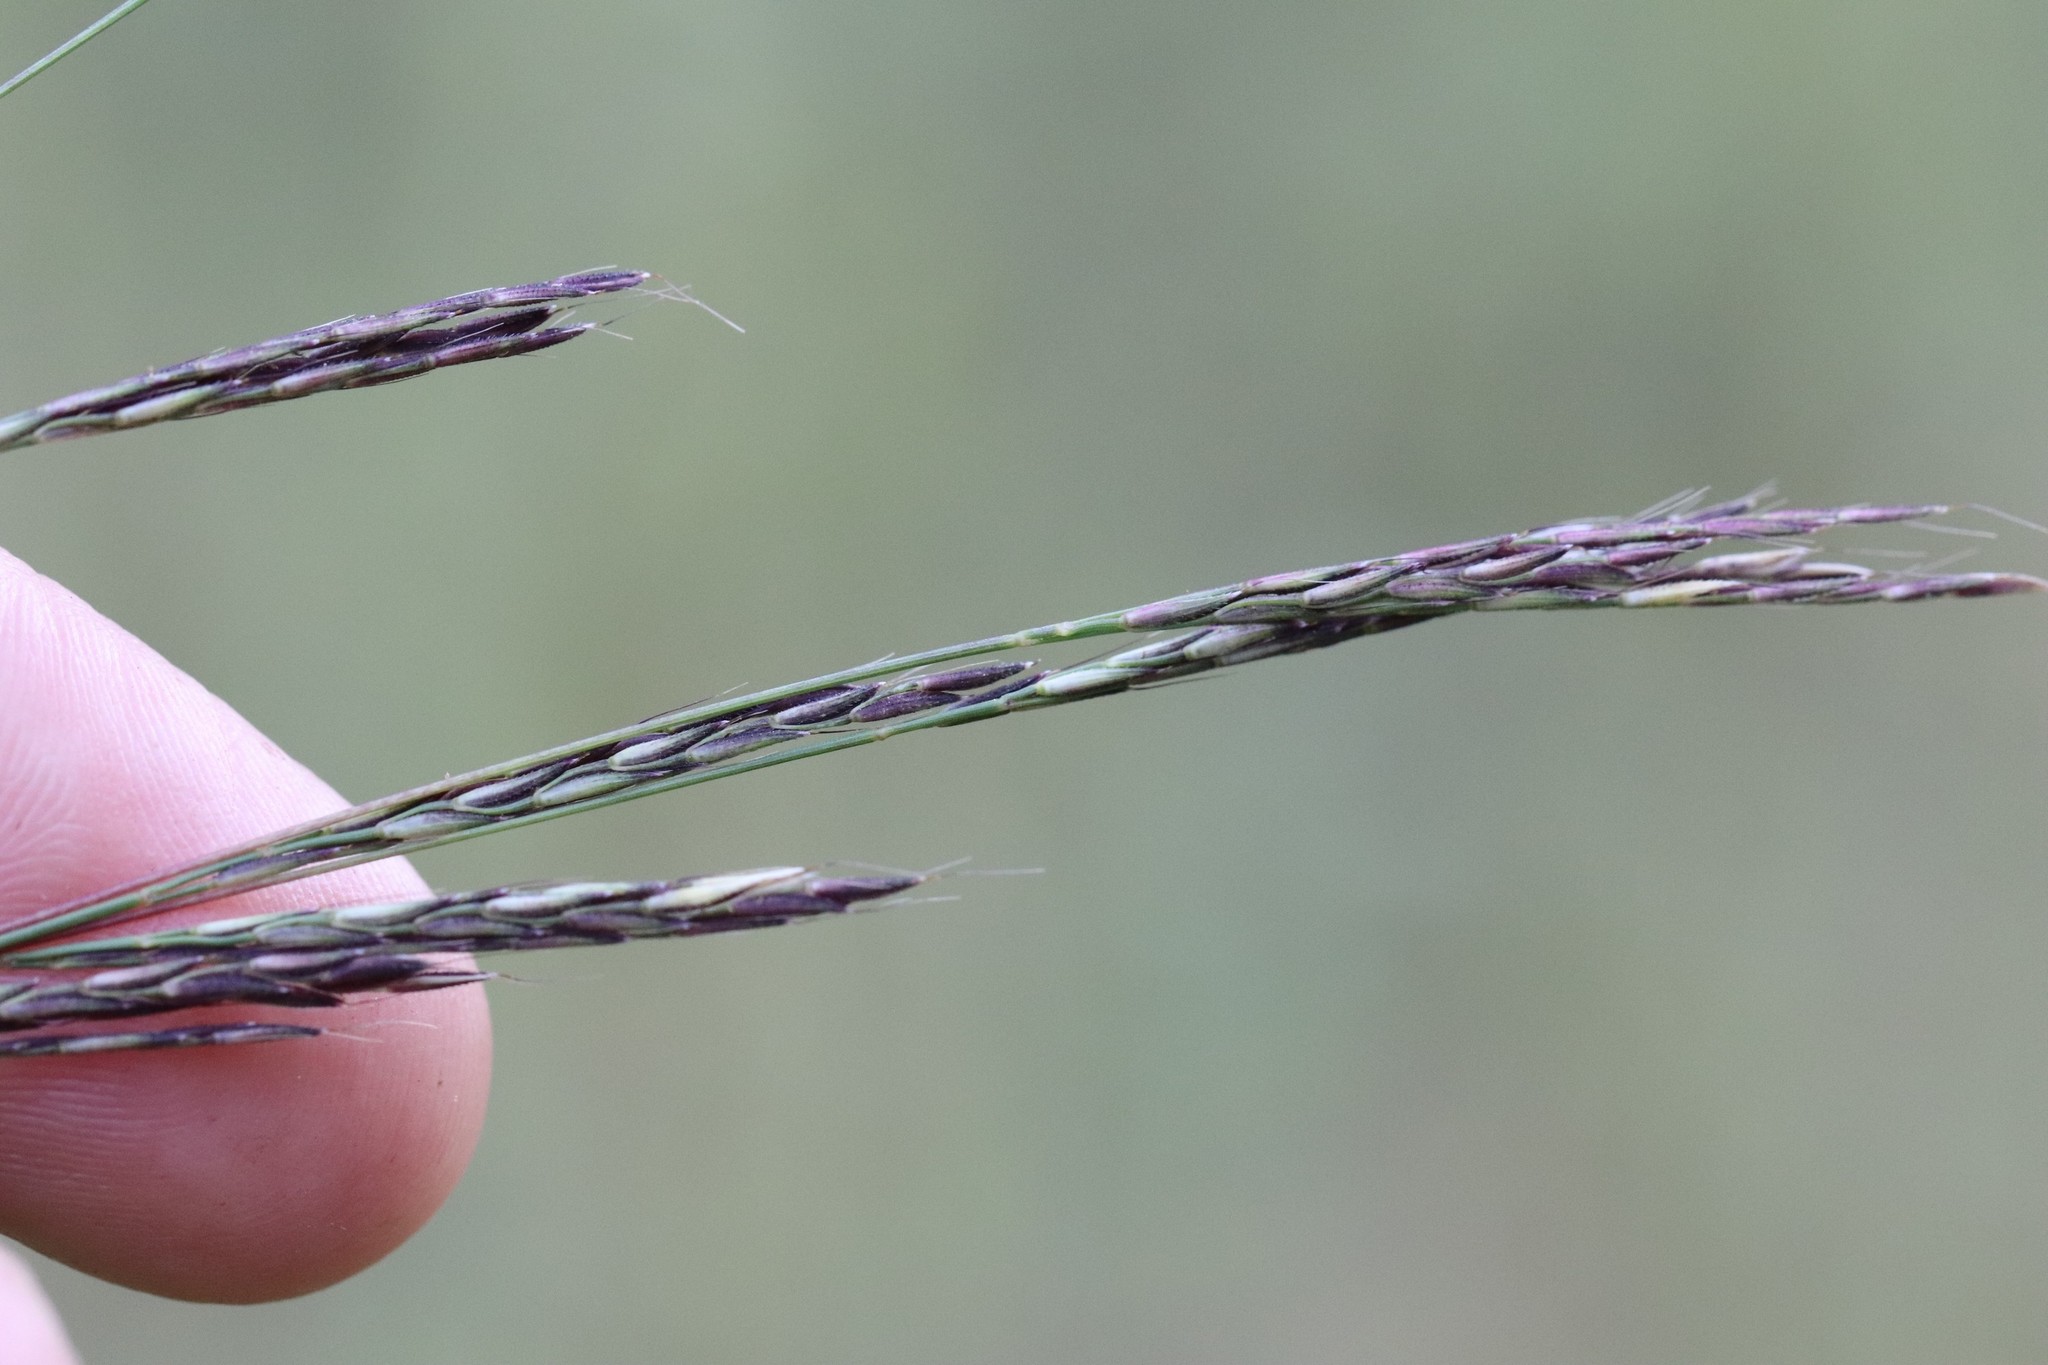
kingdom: Plantae
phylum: Tracheophyta
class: Liliopsida
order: Poales
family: Poaceae
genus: Arthraxon
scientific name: Arthraxon hispidus
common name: Small carpgrass
